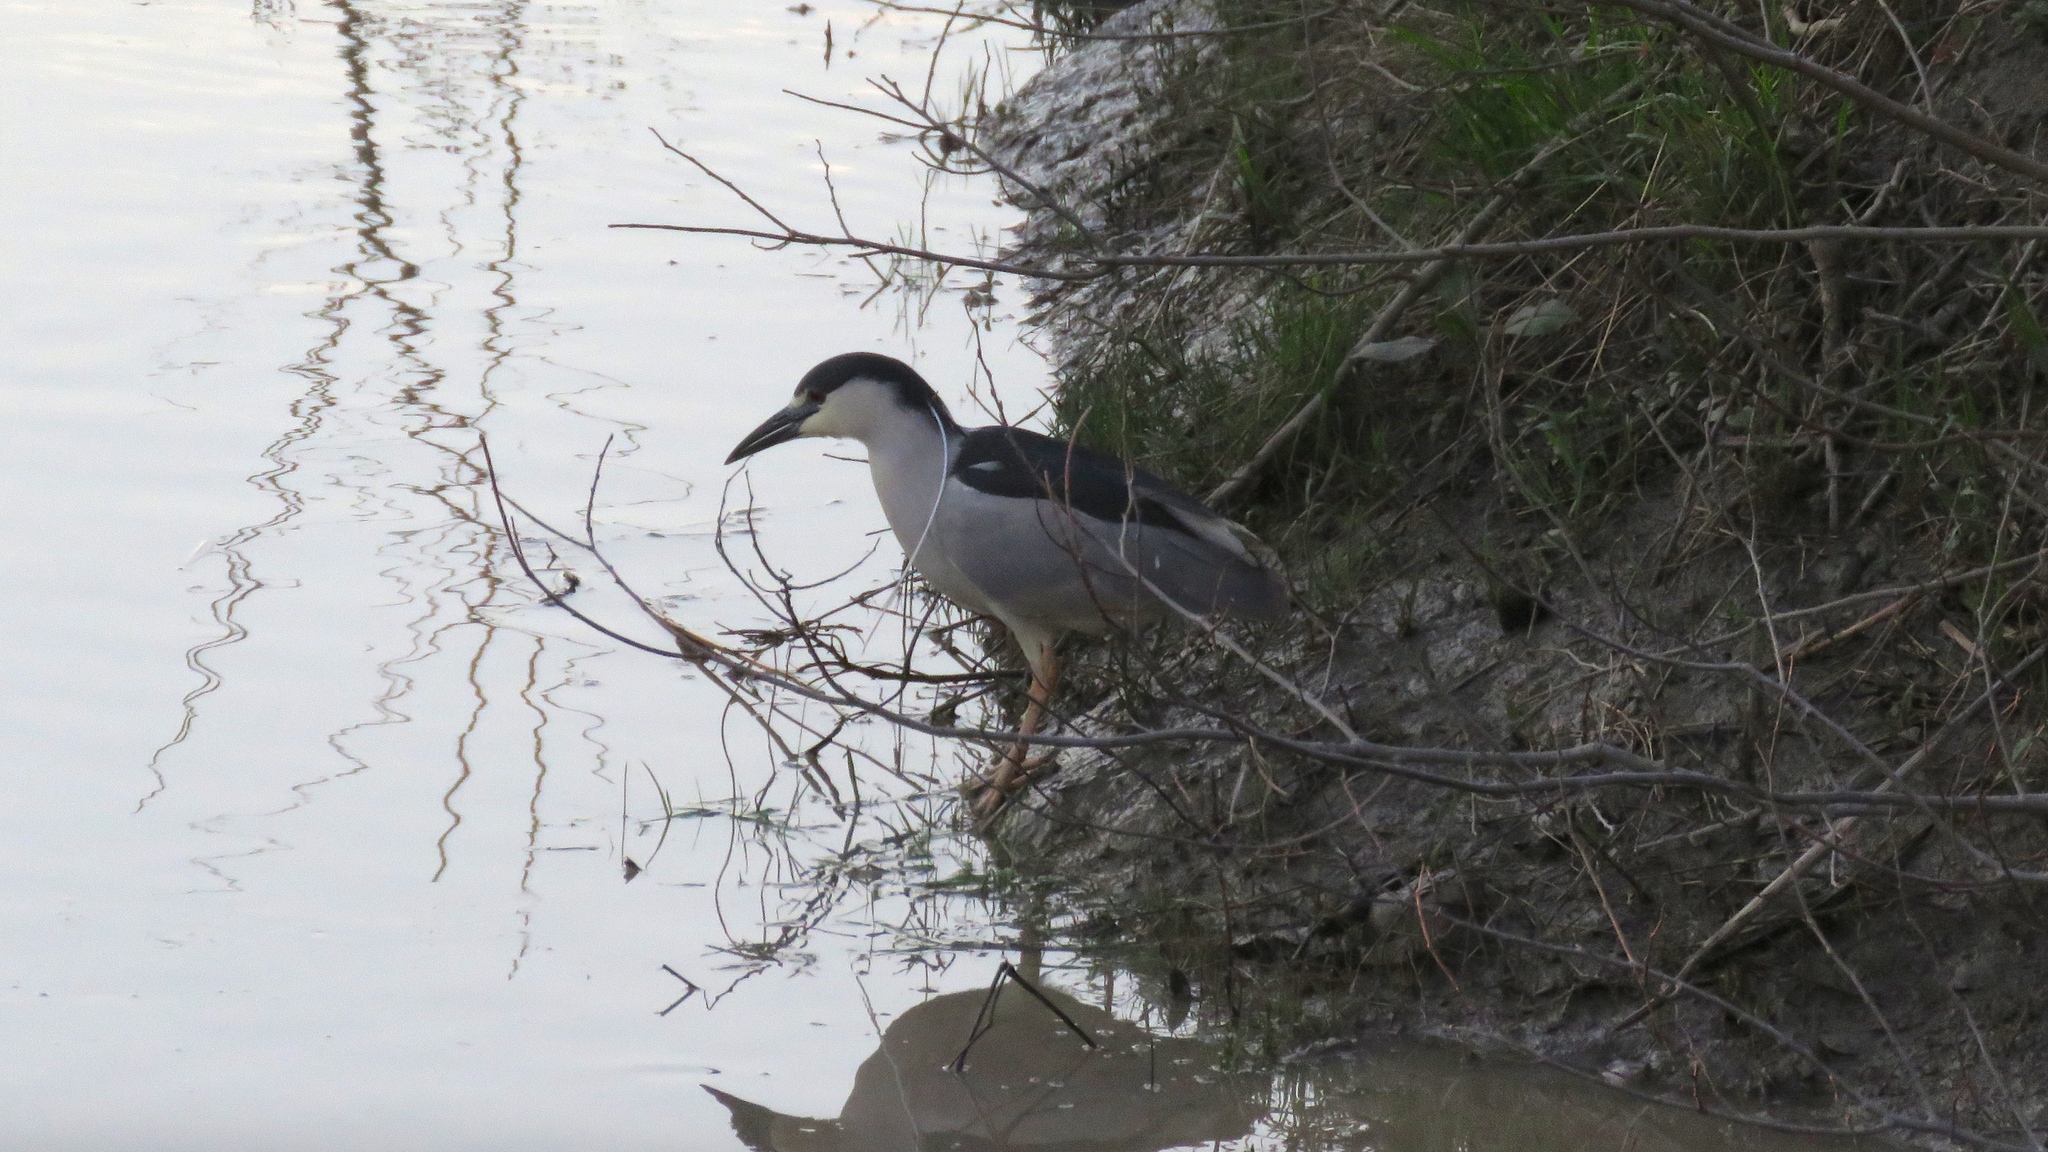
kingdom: Animalia
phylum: Chordata
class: Aves
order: Pelecaniformes
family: Ardeidae
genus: Nycticorax
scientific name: Nycticorax nycticorax
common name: Black-crowned night heron
